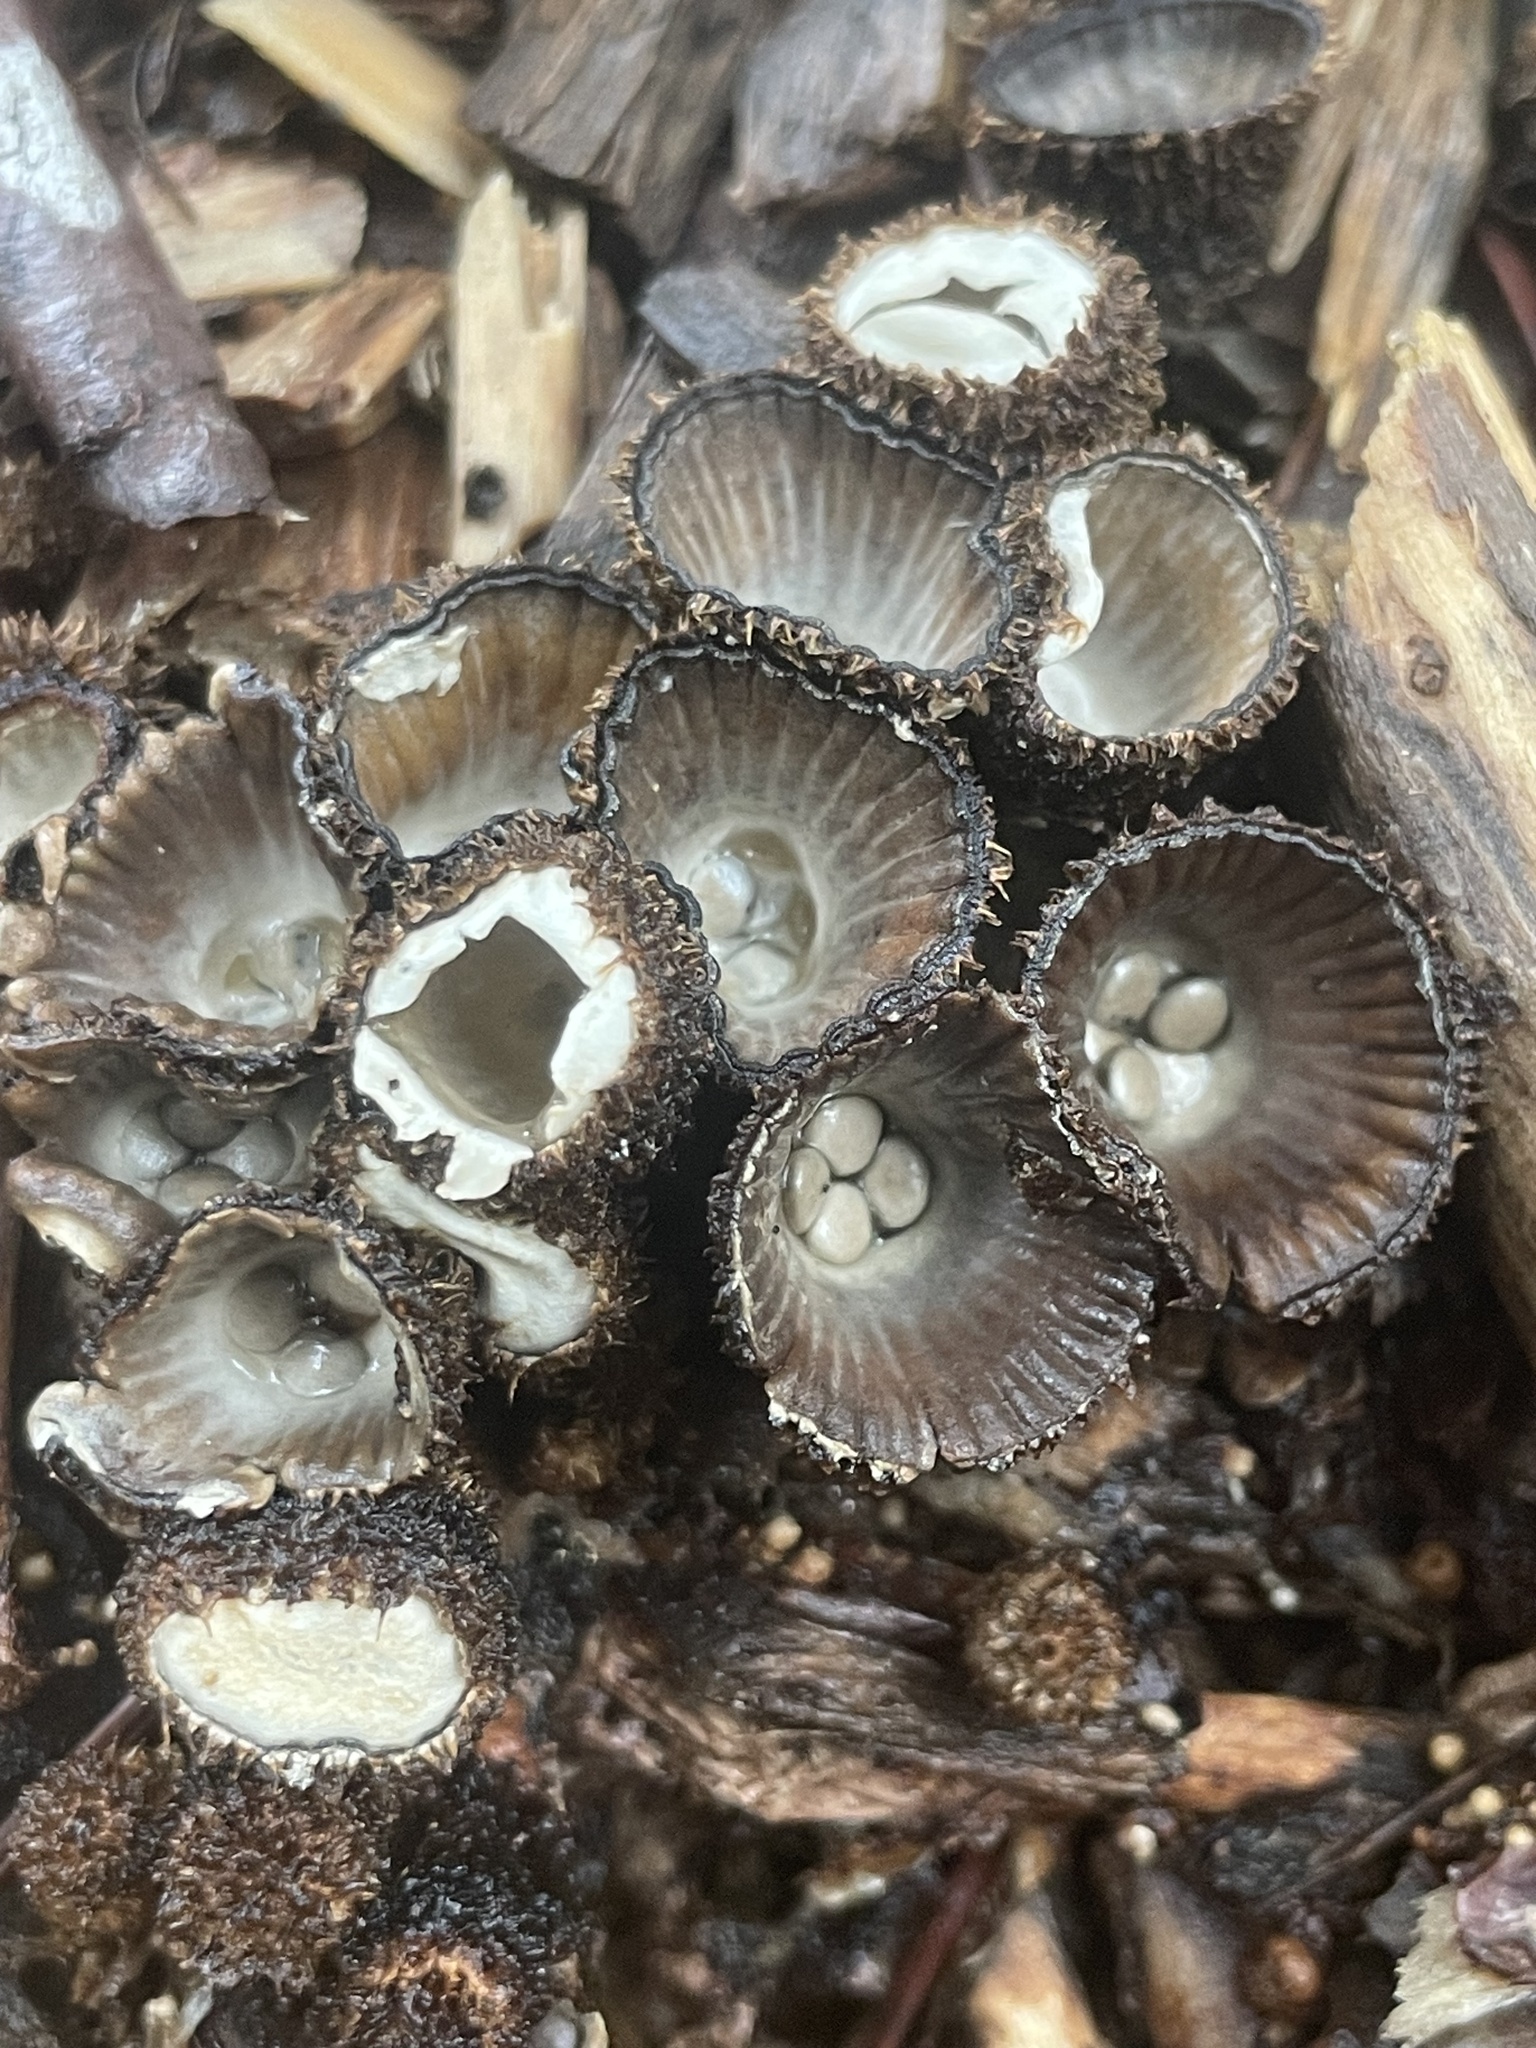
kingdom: Fungi
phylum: Basidiomycota
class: Agaricomycetes
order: Agaricales
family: Agaricaceae
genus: Cyathus
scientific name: Cyathus striatus
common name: Fluted bird's nest
